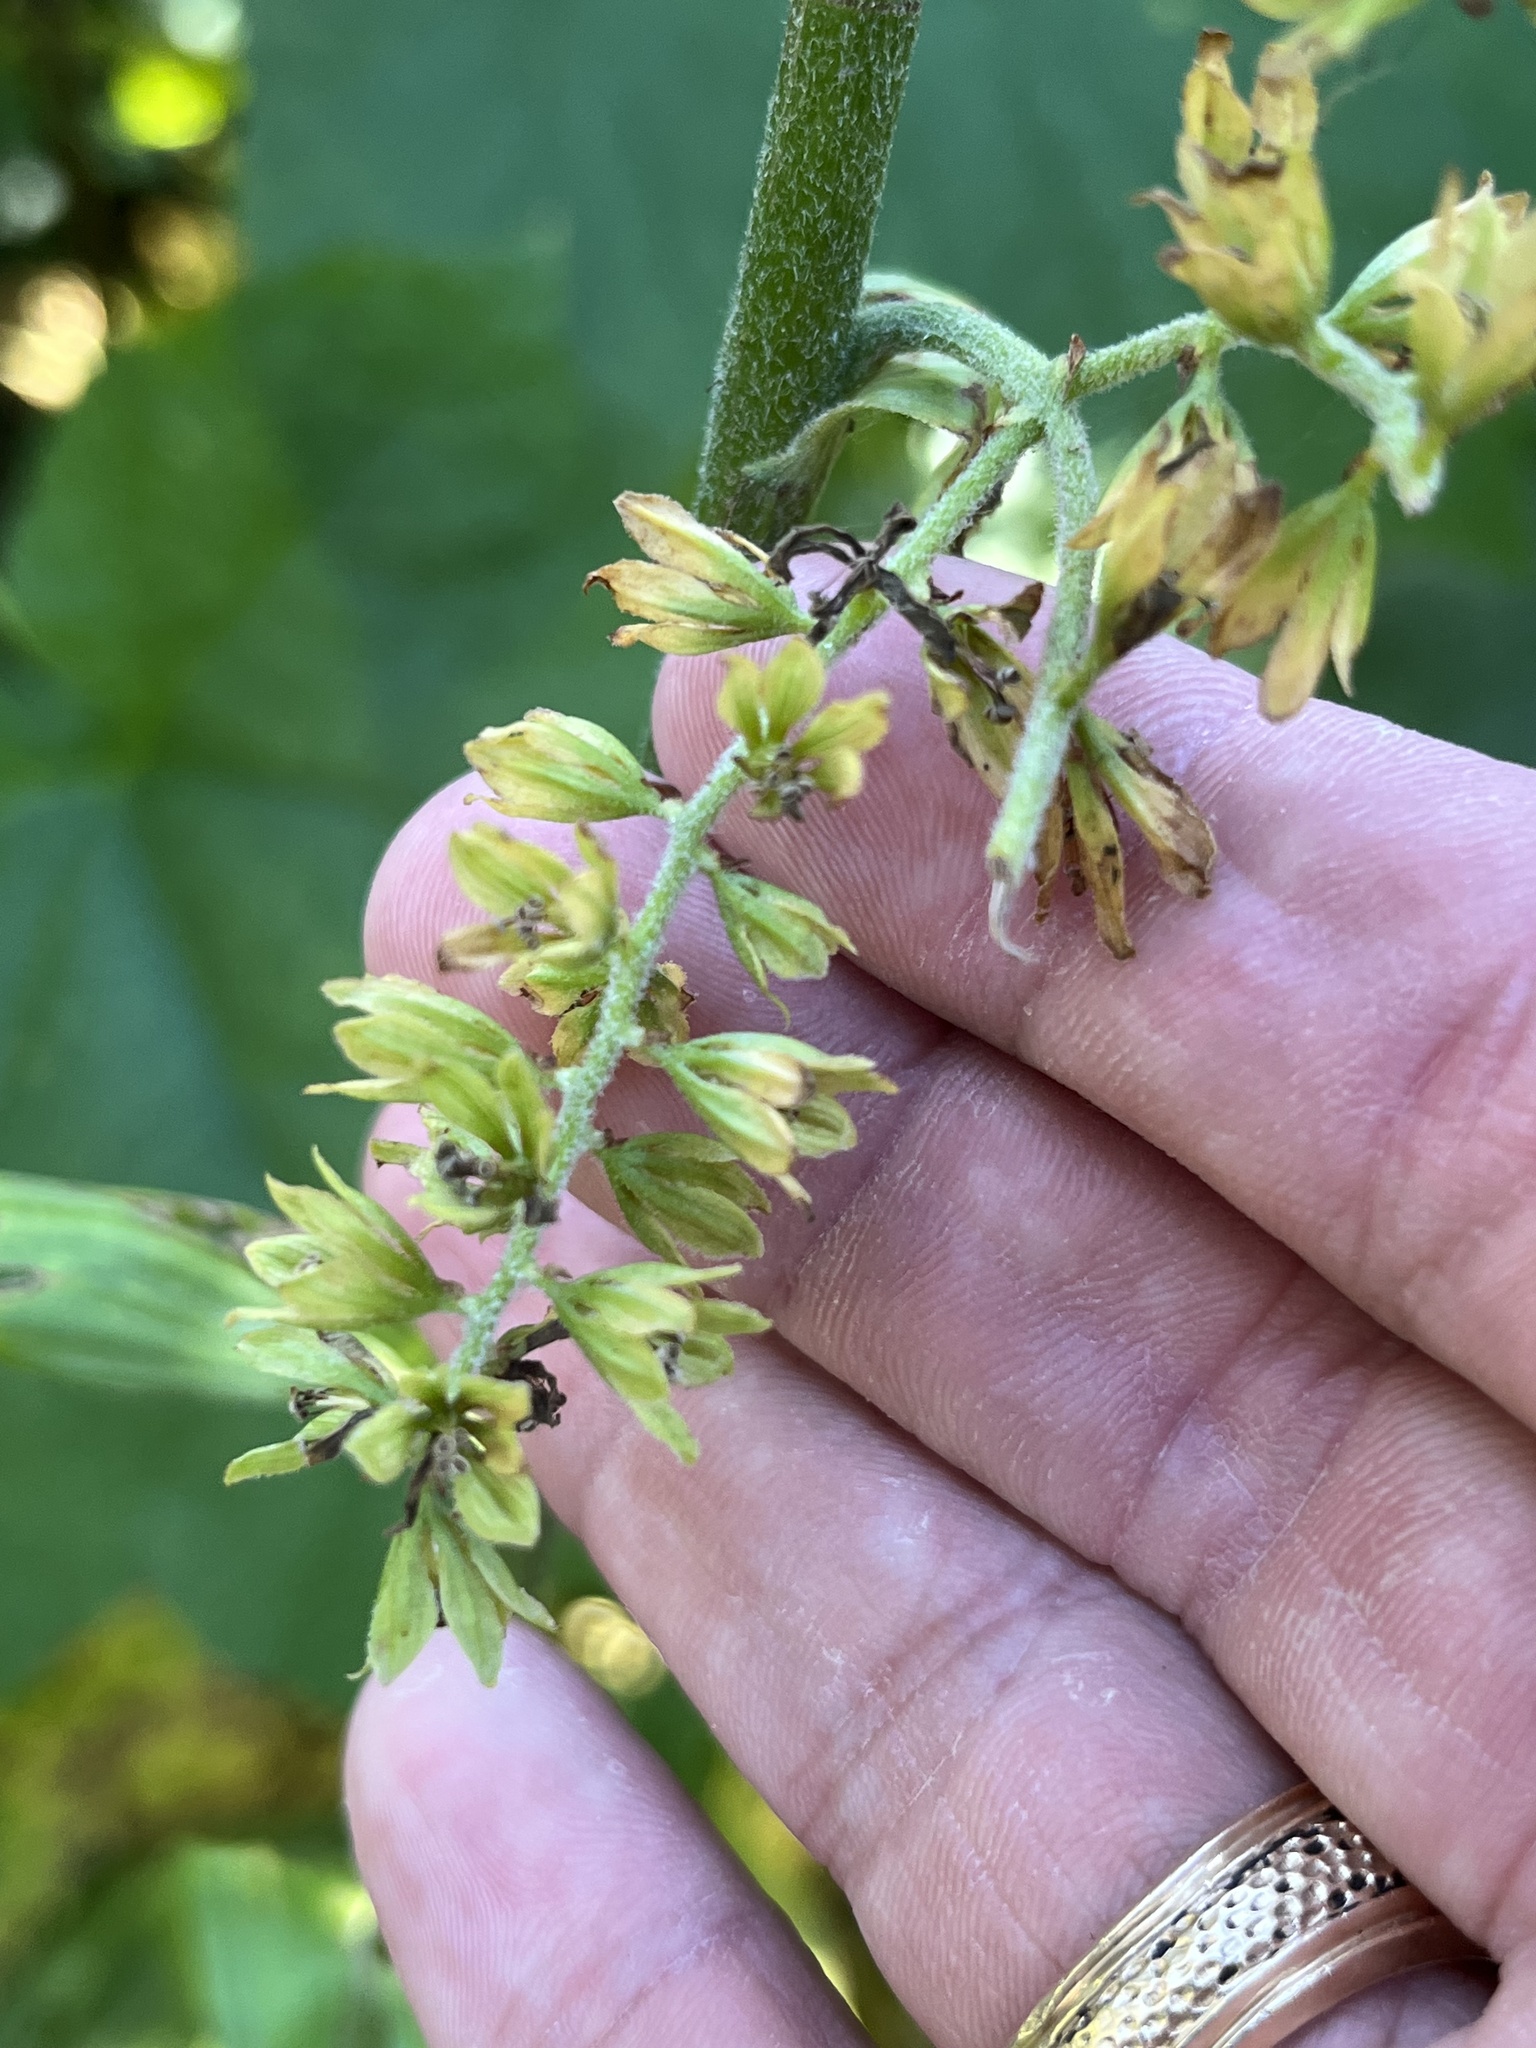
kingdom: Plantae
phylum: Tracheophyta
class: Liliopsida
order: Liliales
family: Melanthiaceae
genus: Veratrum
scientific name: Veratrum viride
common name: American false hellebore
